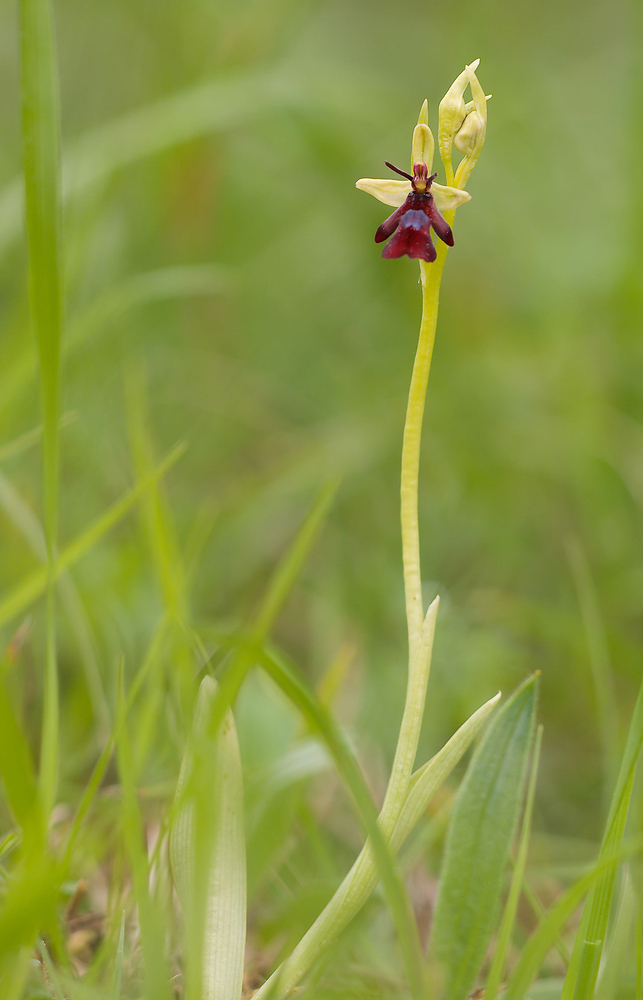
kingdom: Plantae
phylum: Tracheophyta
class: Liliopsida
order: Asparagales
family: Orchidaceae
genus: Ophrys
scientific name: Ophrys insectifera
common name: Fly orchid
